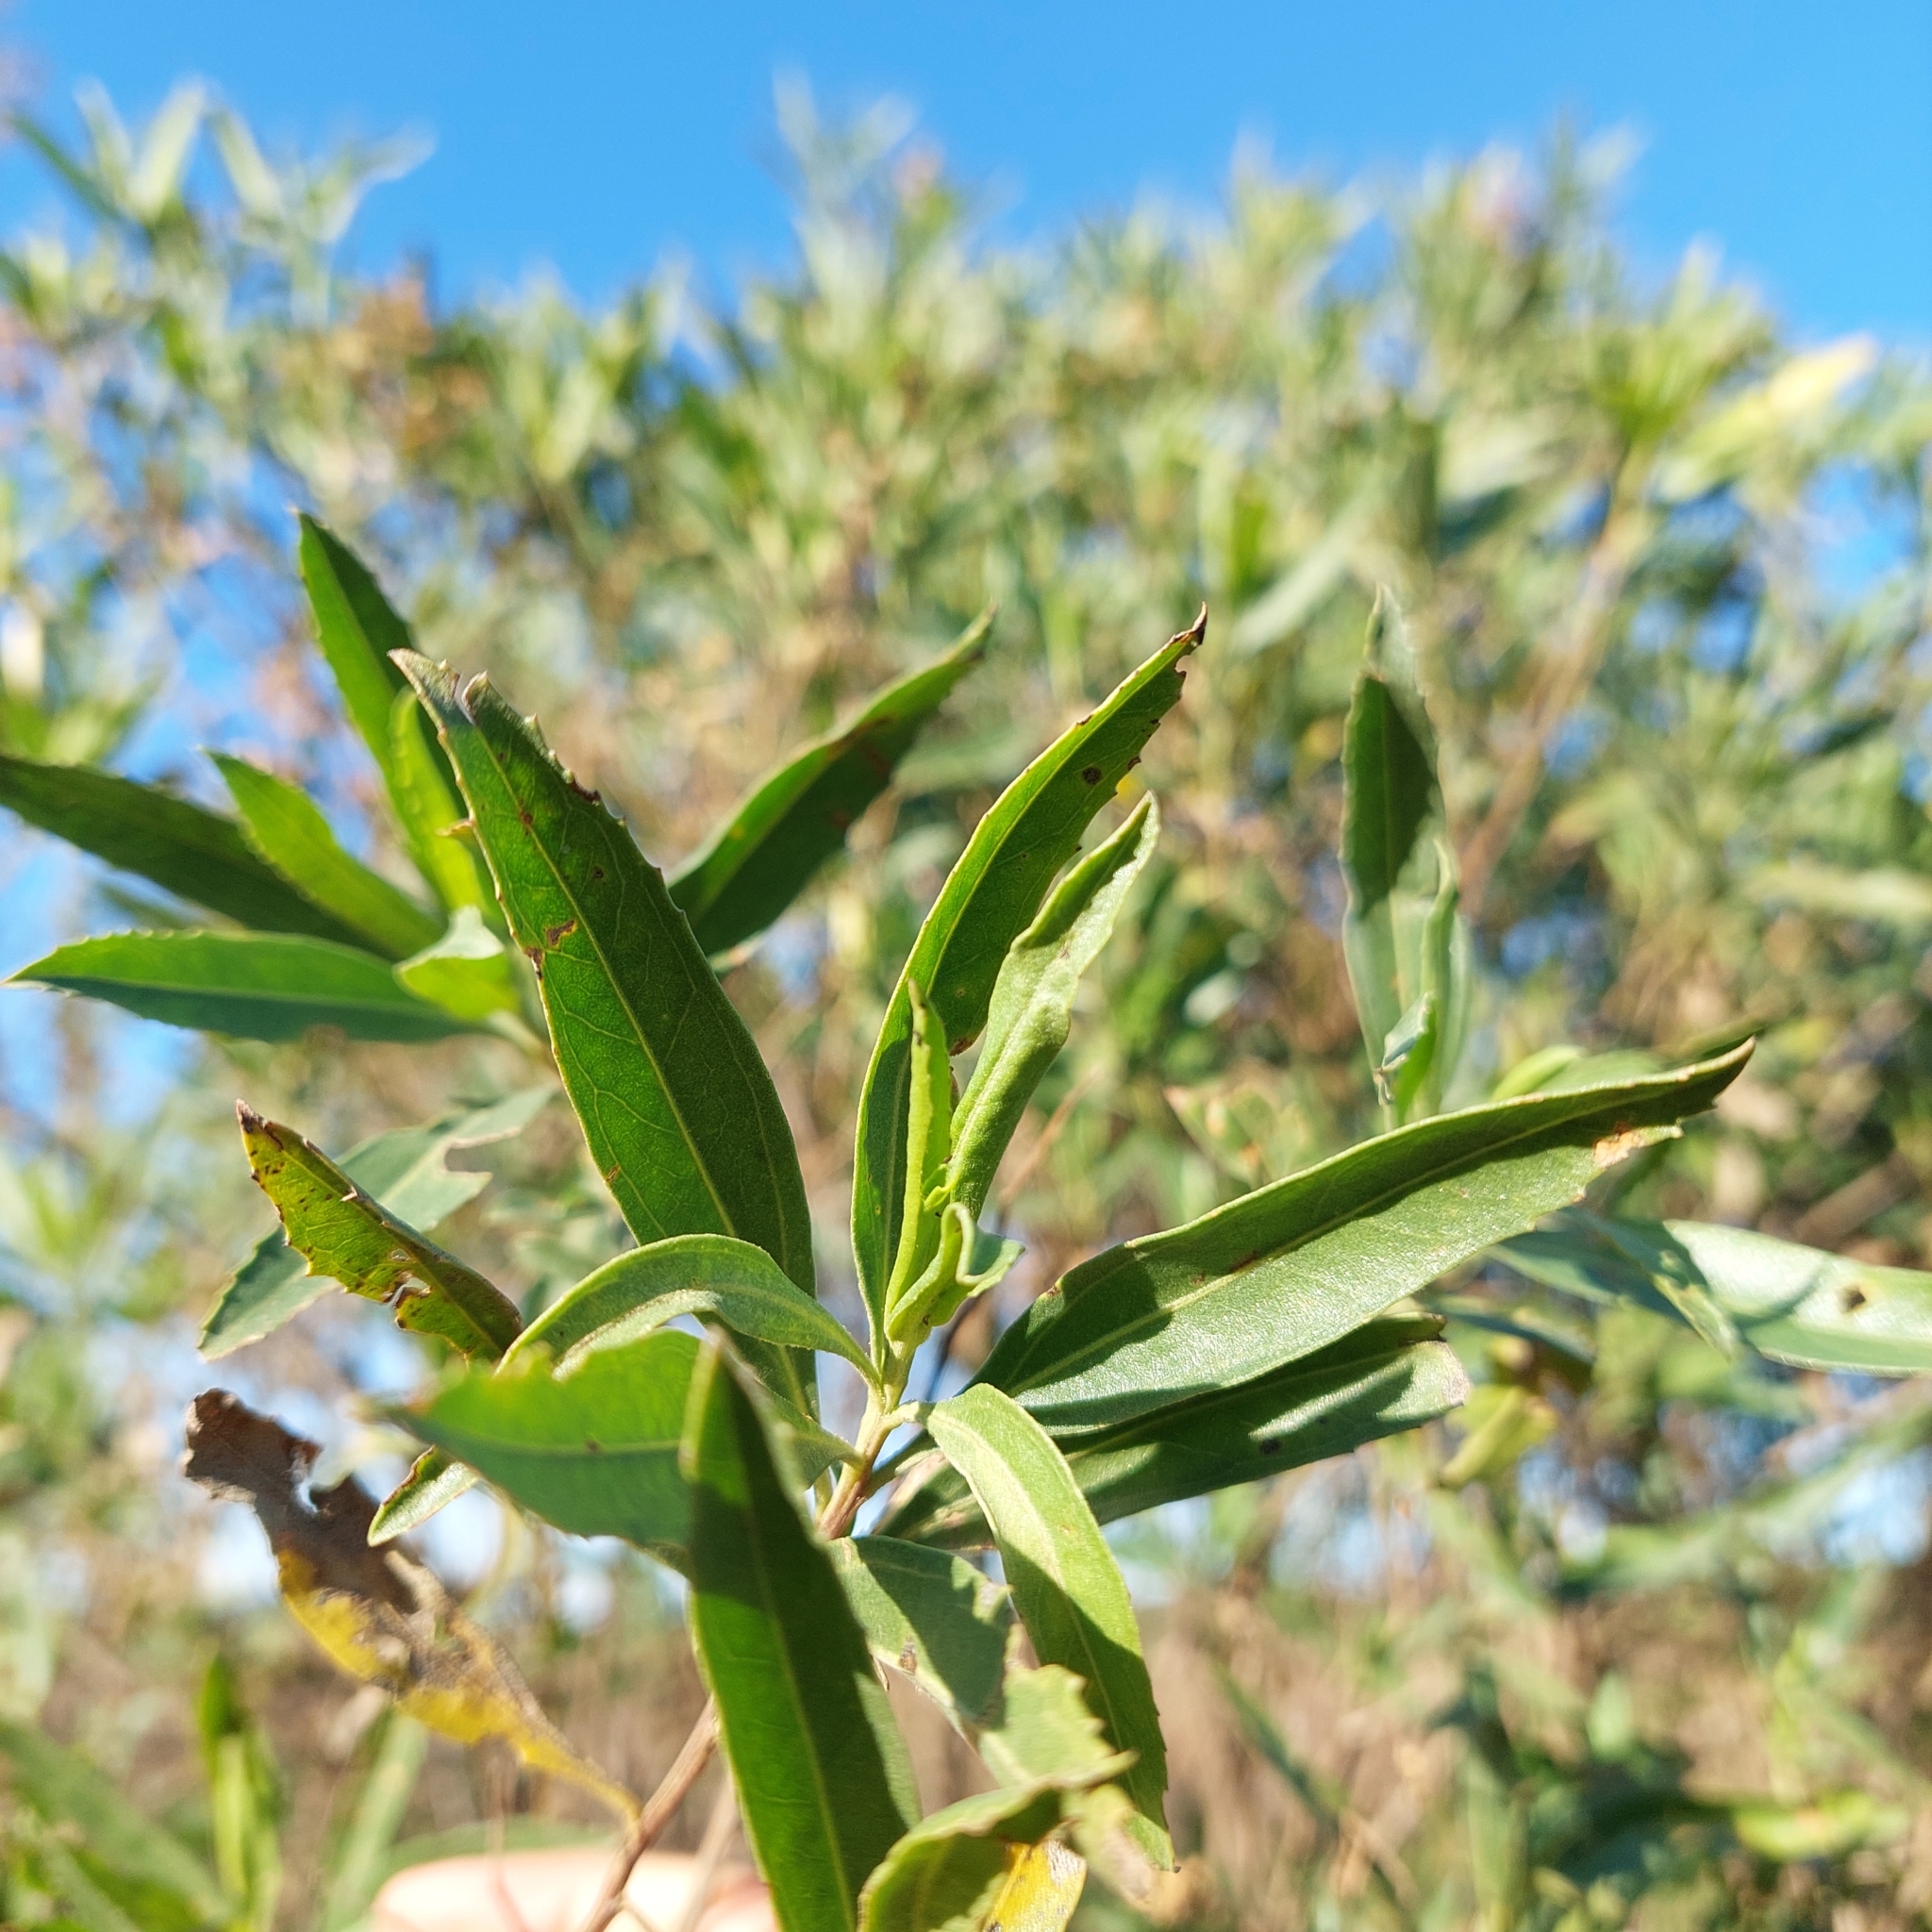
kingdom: Plantae
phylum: Tracheophyta
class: Magnoliopsida
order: Asterales
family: Asteraceae
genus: Baccharis
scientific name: Baccharis salicifolia
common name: Sticky baccharis
